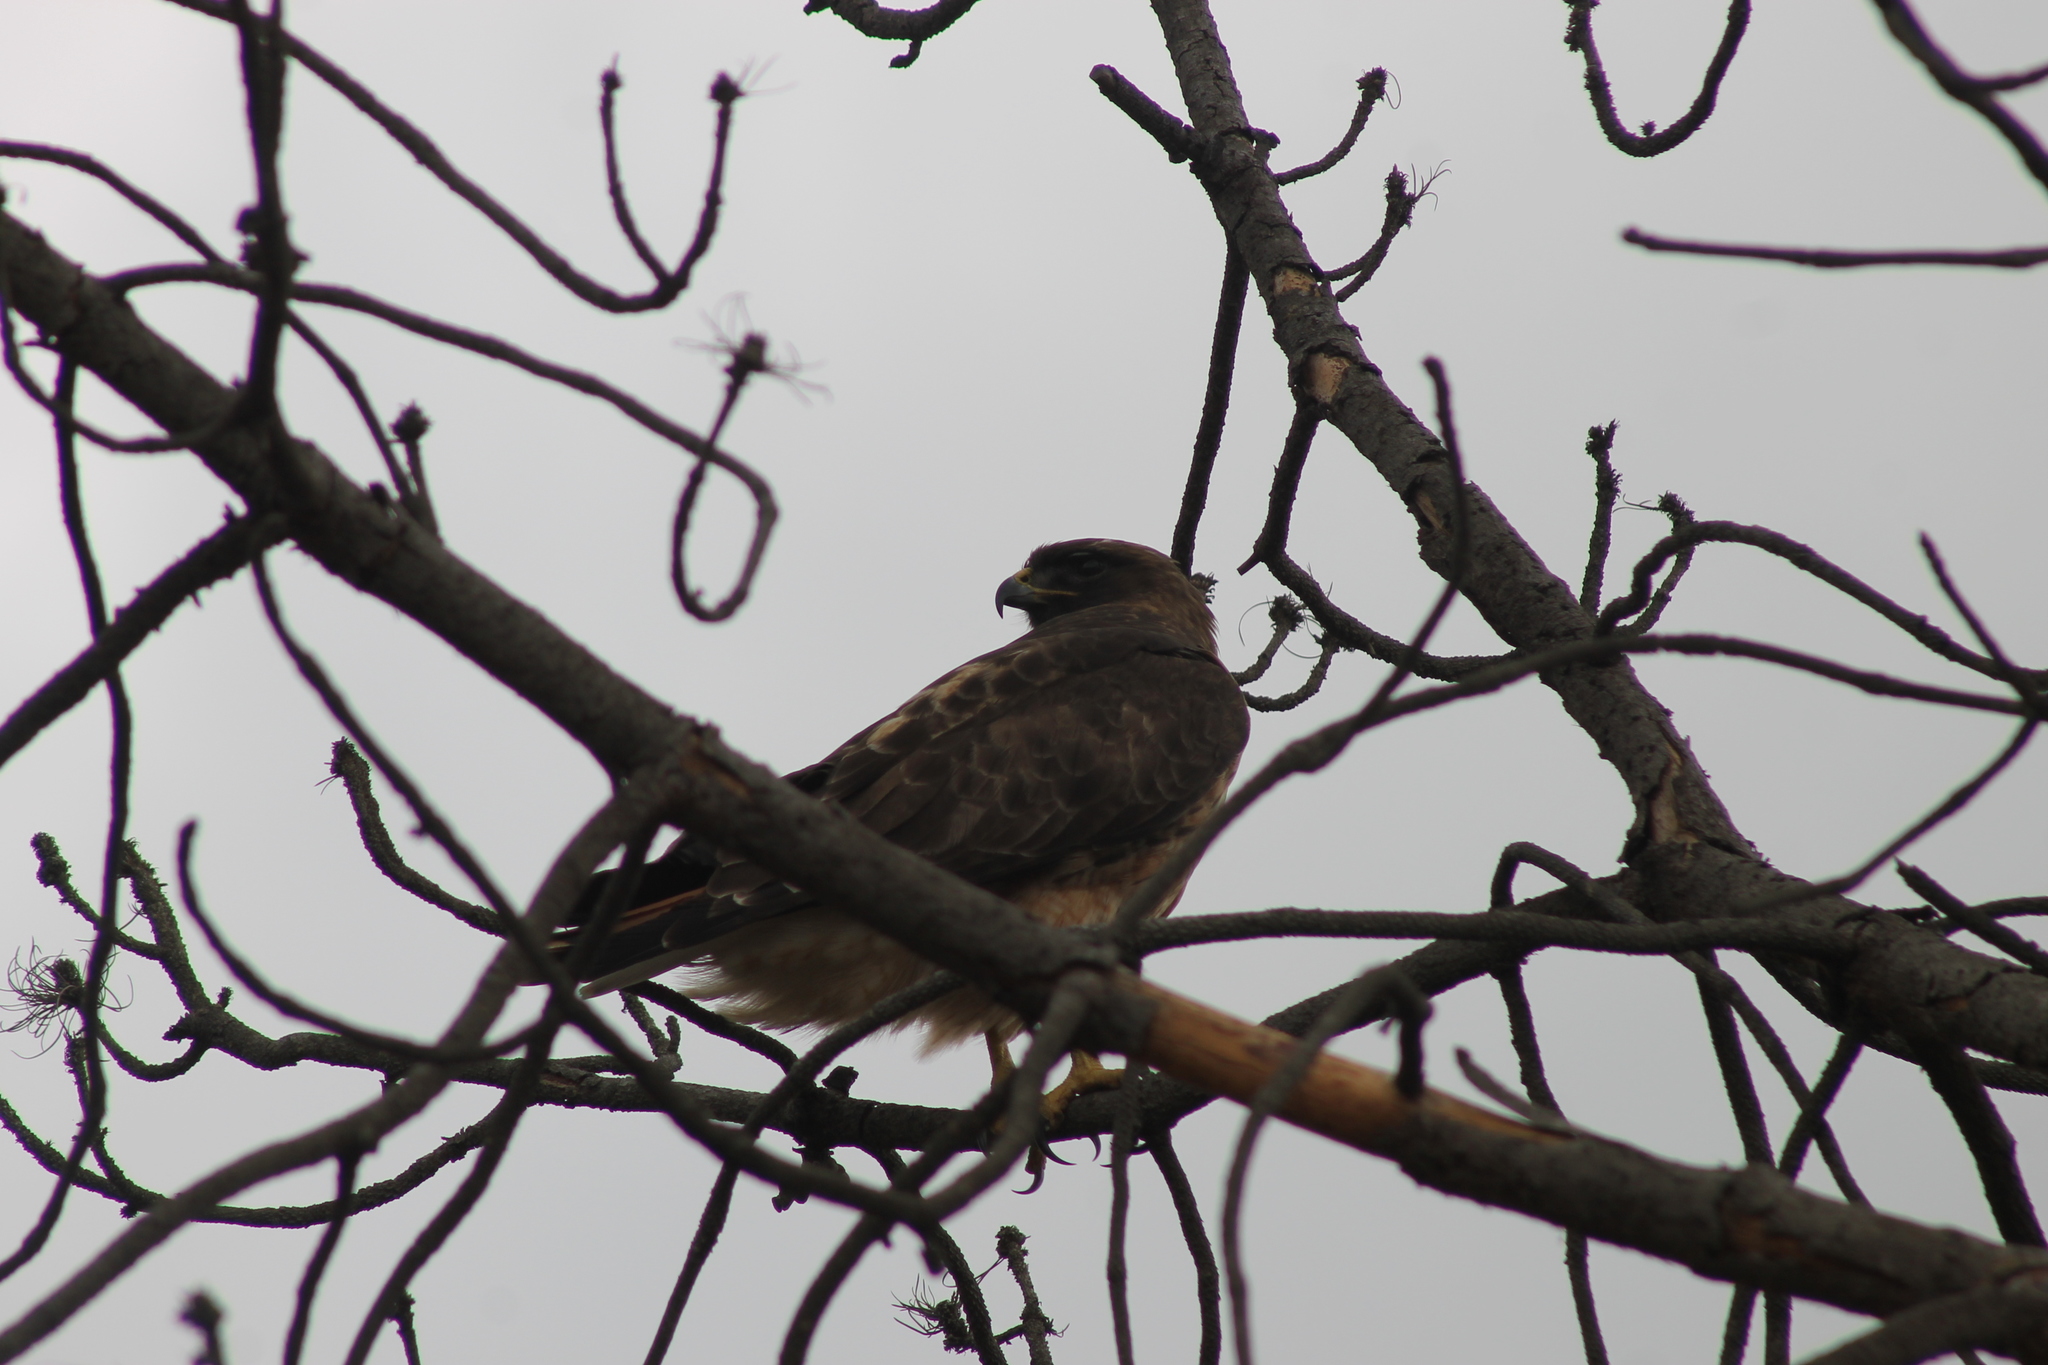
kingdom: Animalia
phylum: Chordata
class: Aves
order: Accipitriformes
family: Accipitridae
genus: Buteo
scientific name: Buteo jamaicensis
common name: Red-tailed hawk
